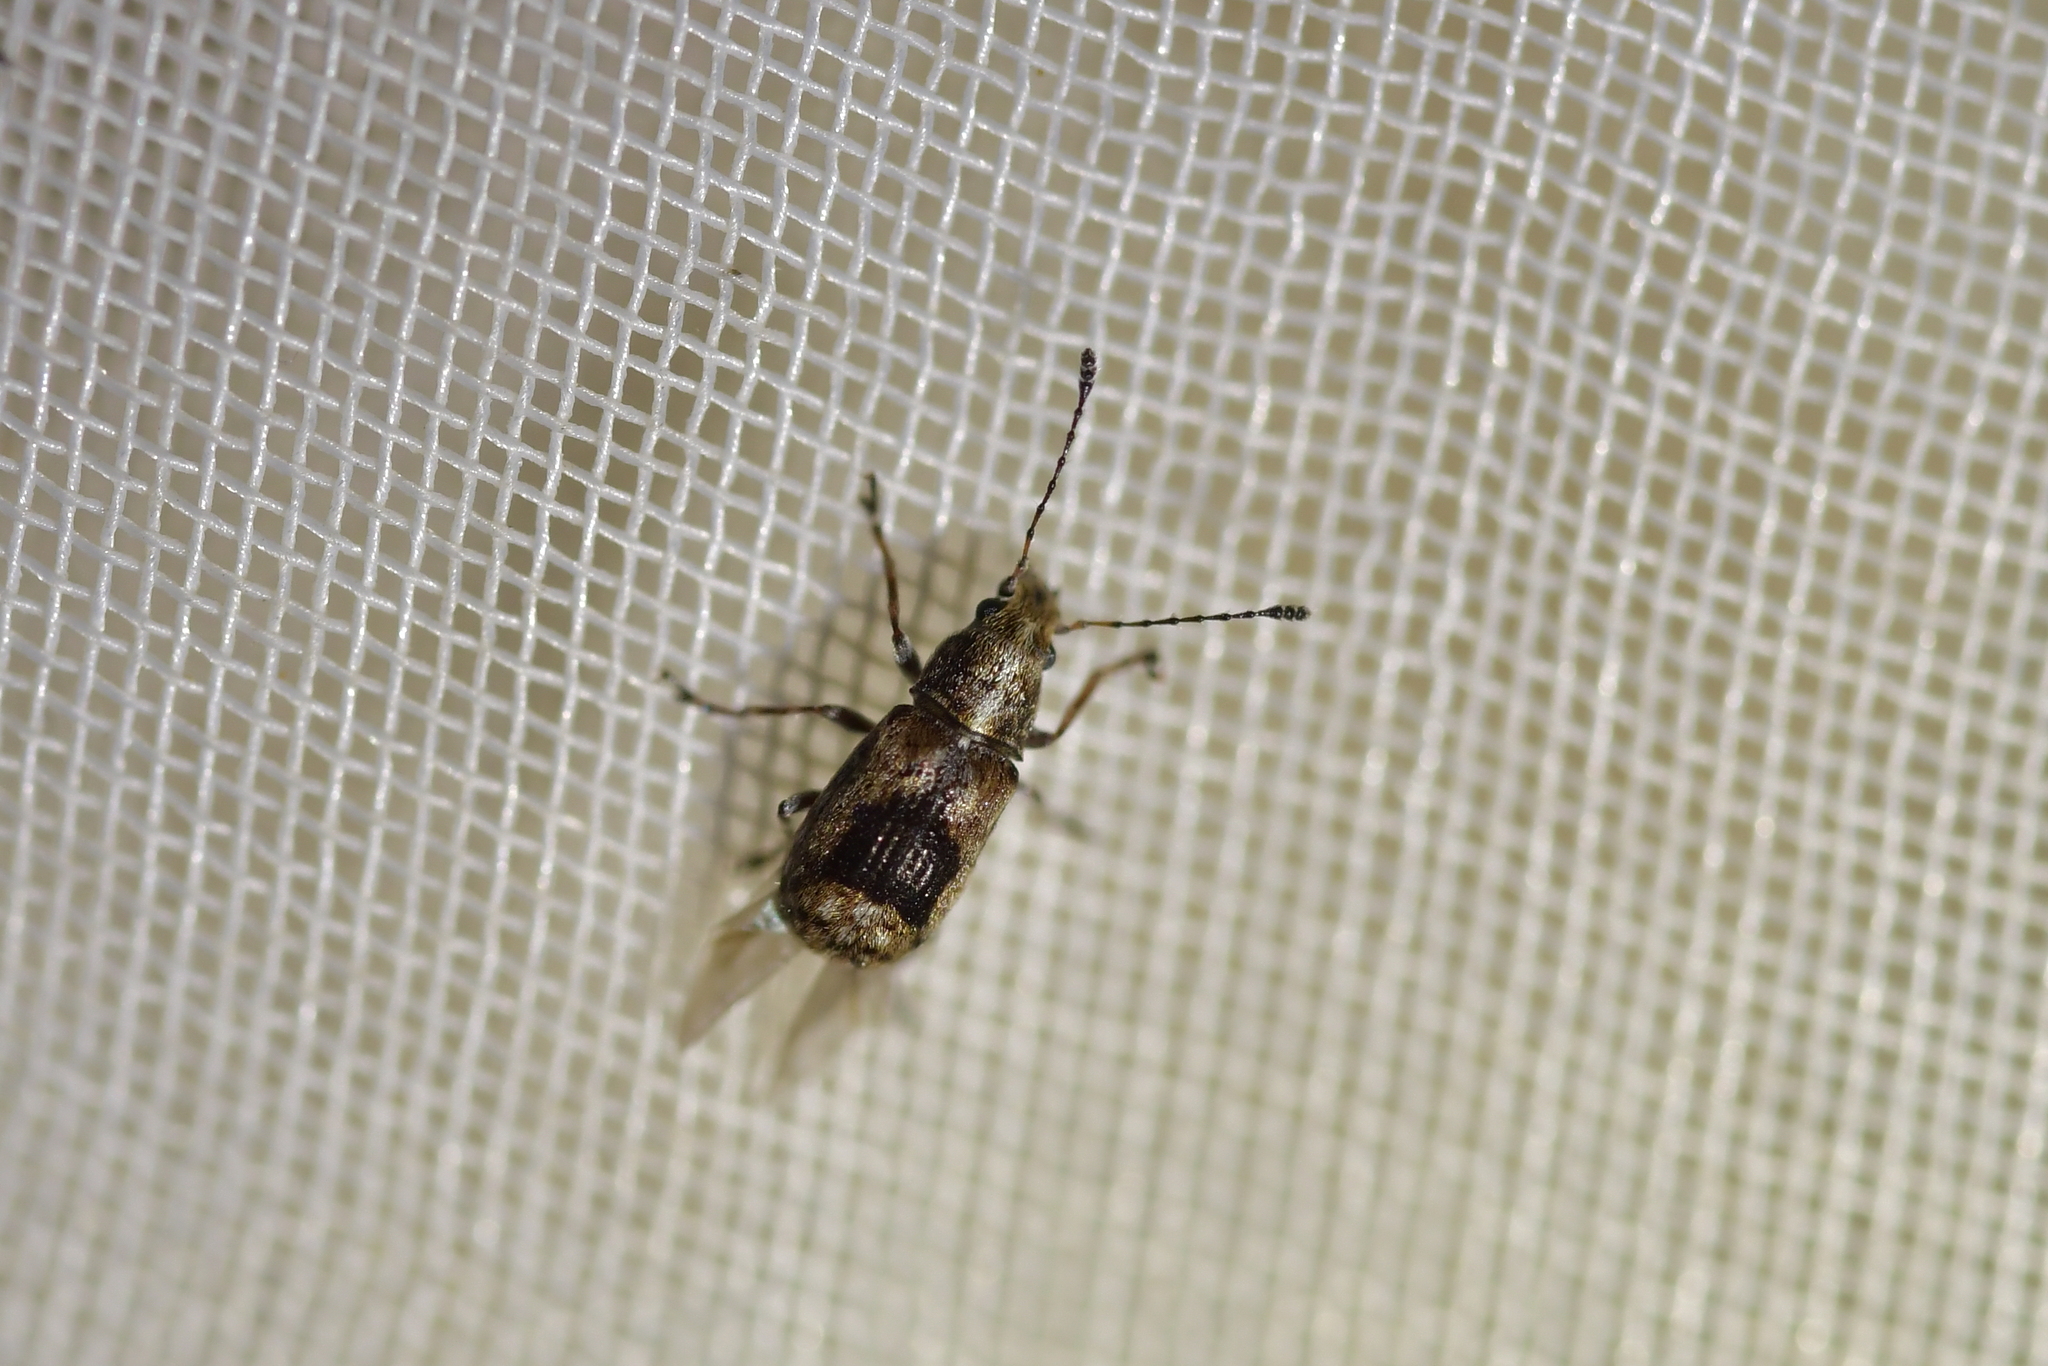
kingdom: Animalia
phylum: Arthropoda
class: Insecta
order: Coleoptera
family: Anthribidae
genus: Isanthribus
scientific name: Isanthribus
